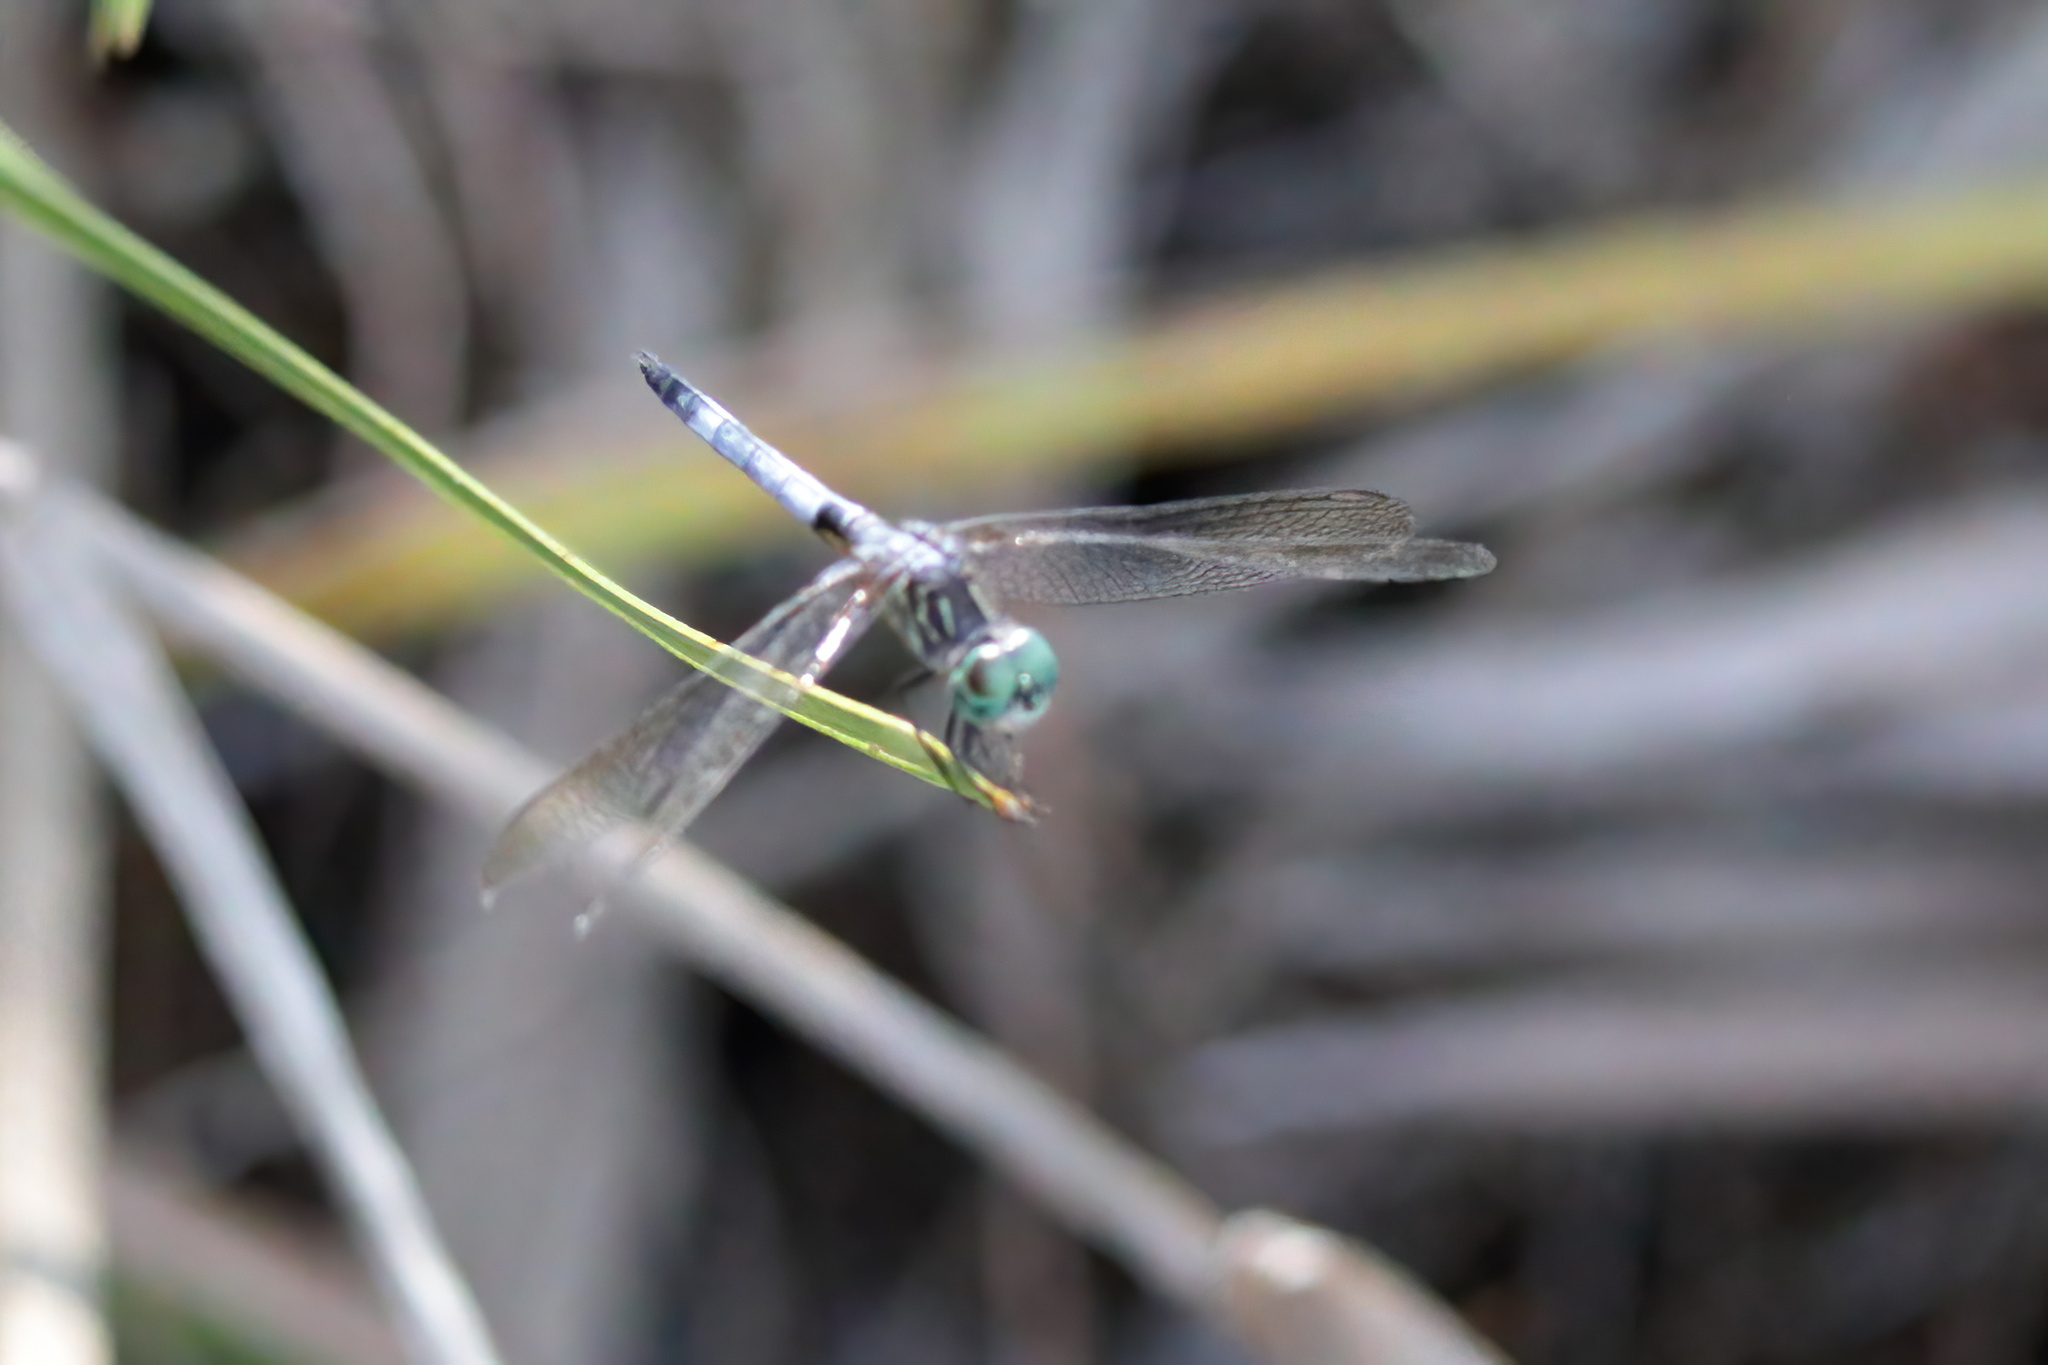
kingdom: Animalia
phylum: Arthropoda
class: Insecta
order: Odonata
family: Libellulidae
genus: Pachydiplax
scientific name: Pachydiplax longipennis
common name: Blue dasher
